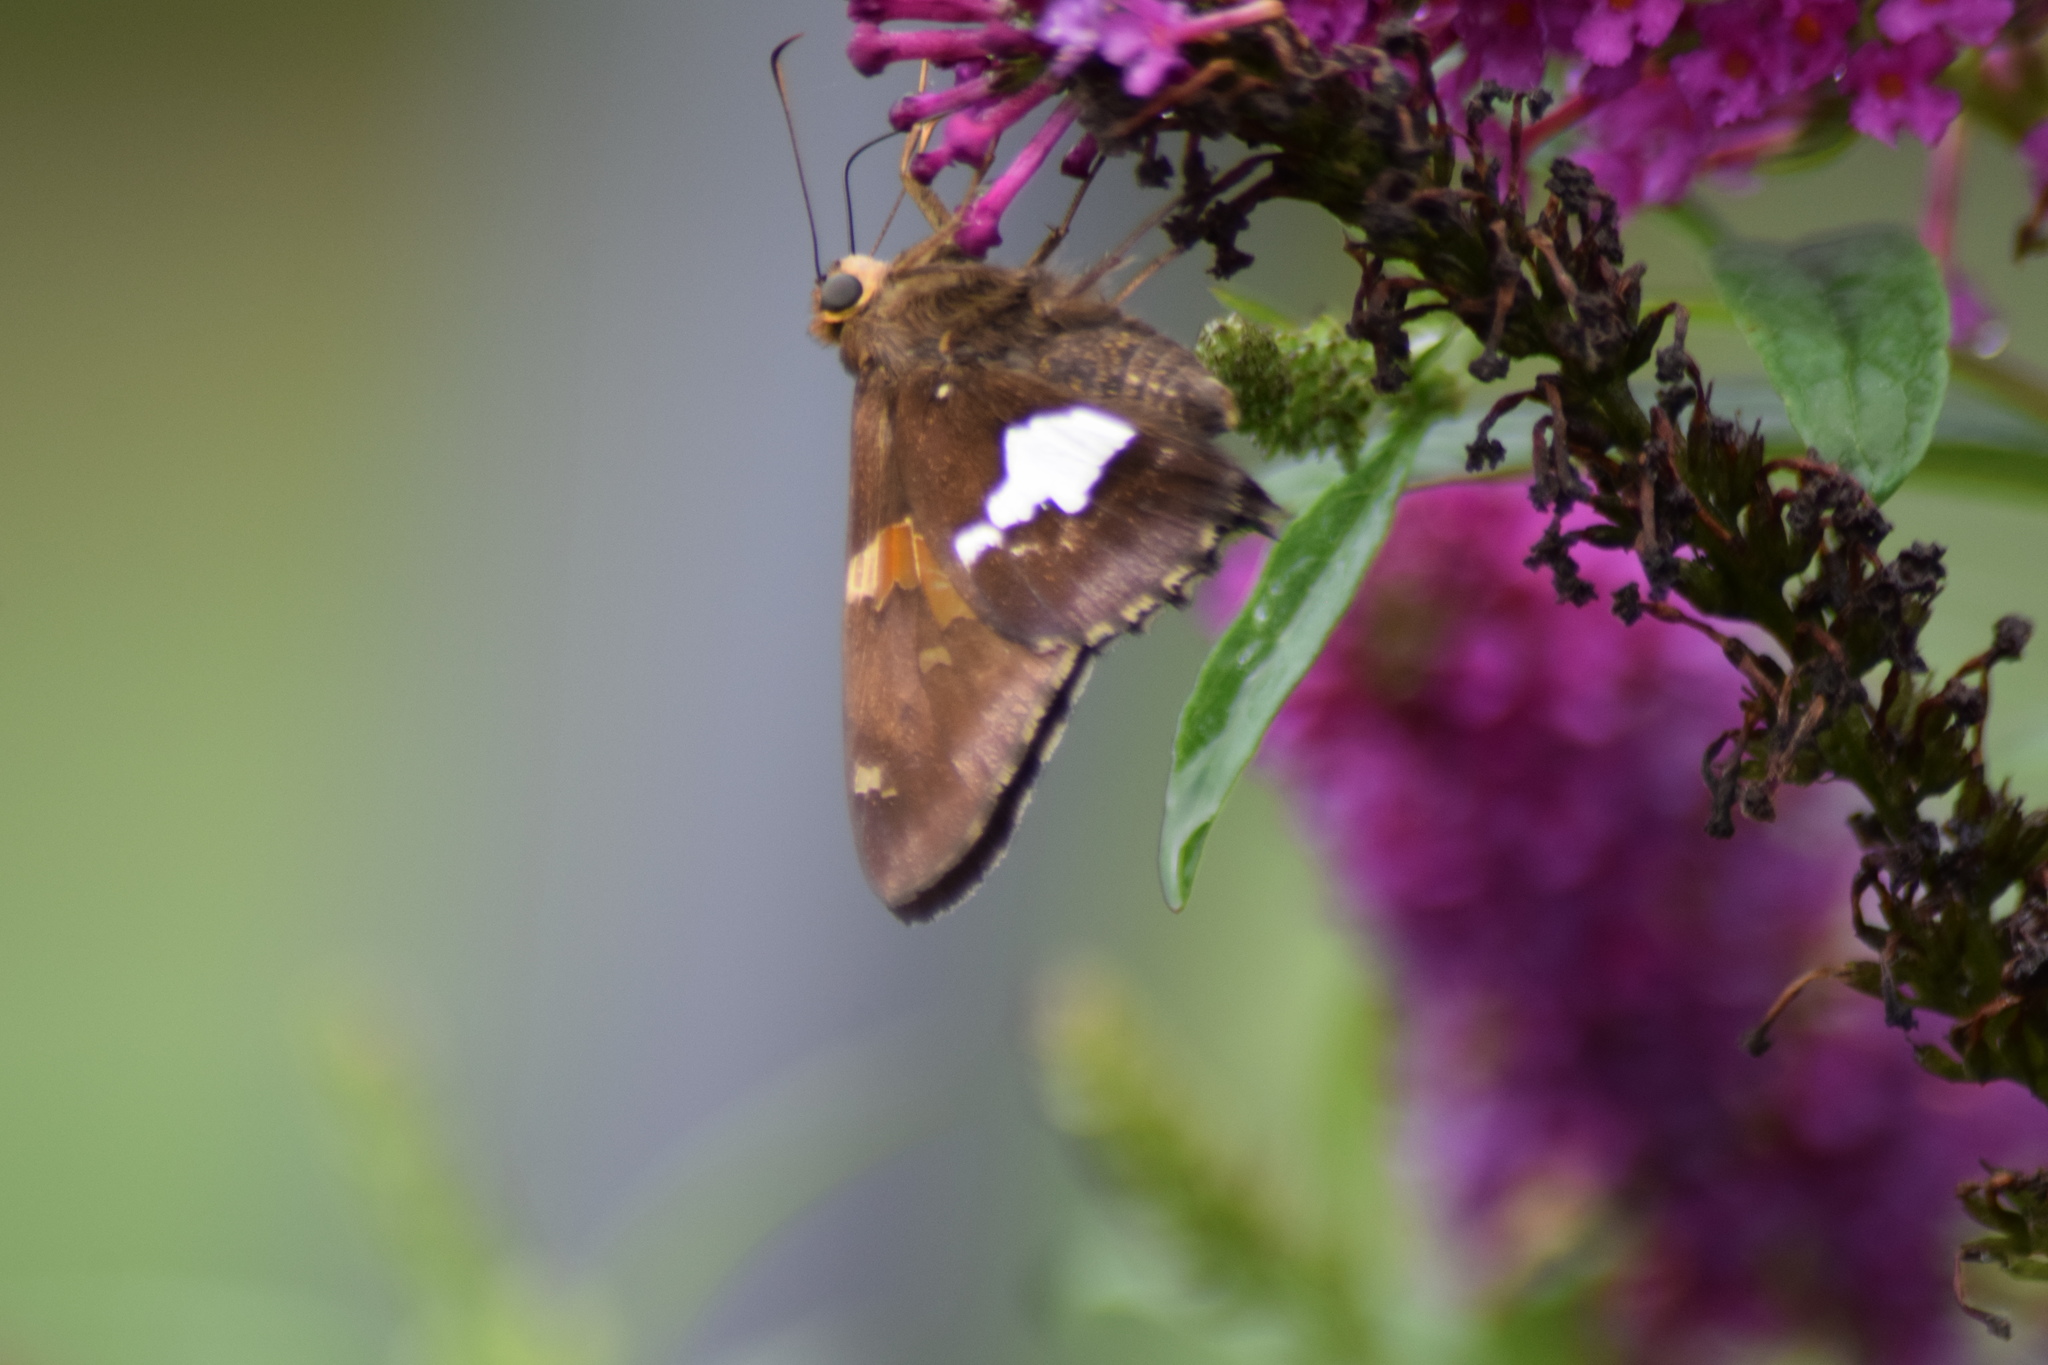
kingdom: Animalia
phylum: Arthropoda
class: Insecta
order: Lepidoptera
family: Hesperiidae
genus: Epargyreus
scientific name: Epargyreus clarus
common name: Silver-spotted skipper
